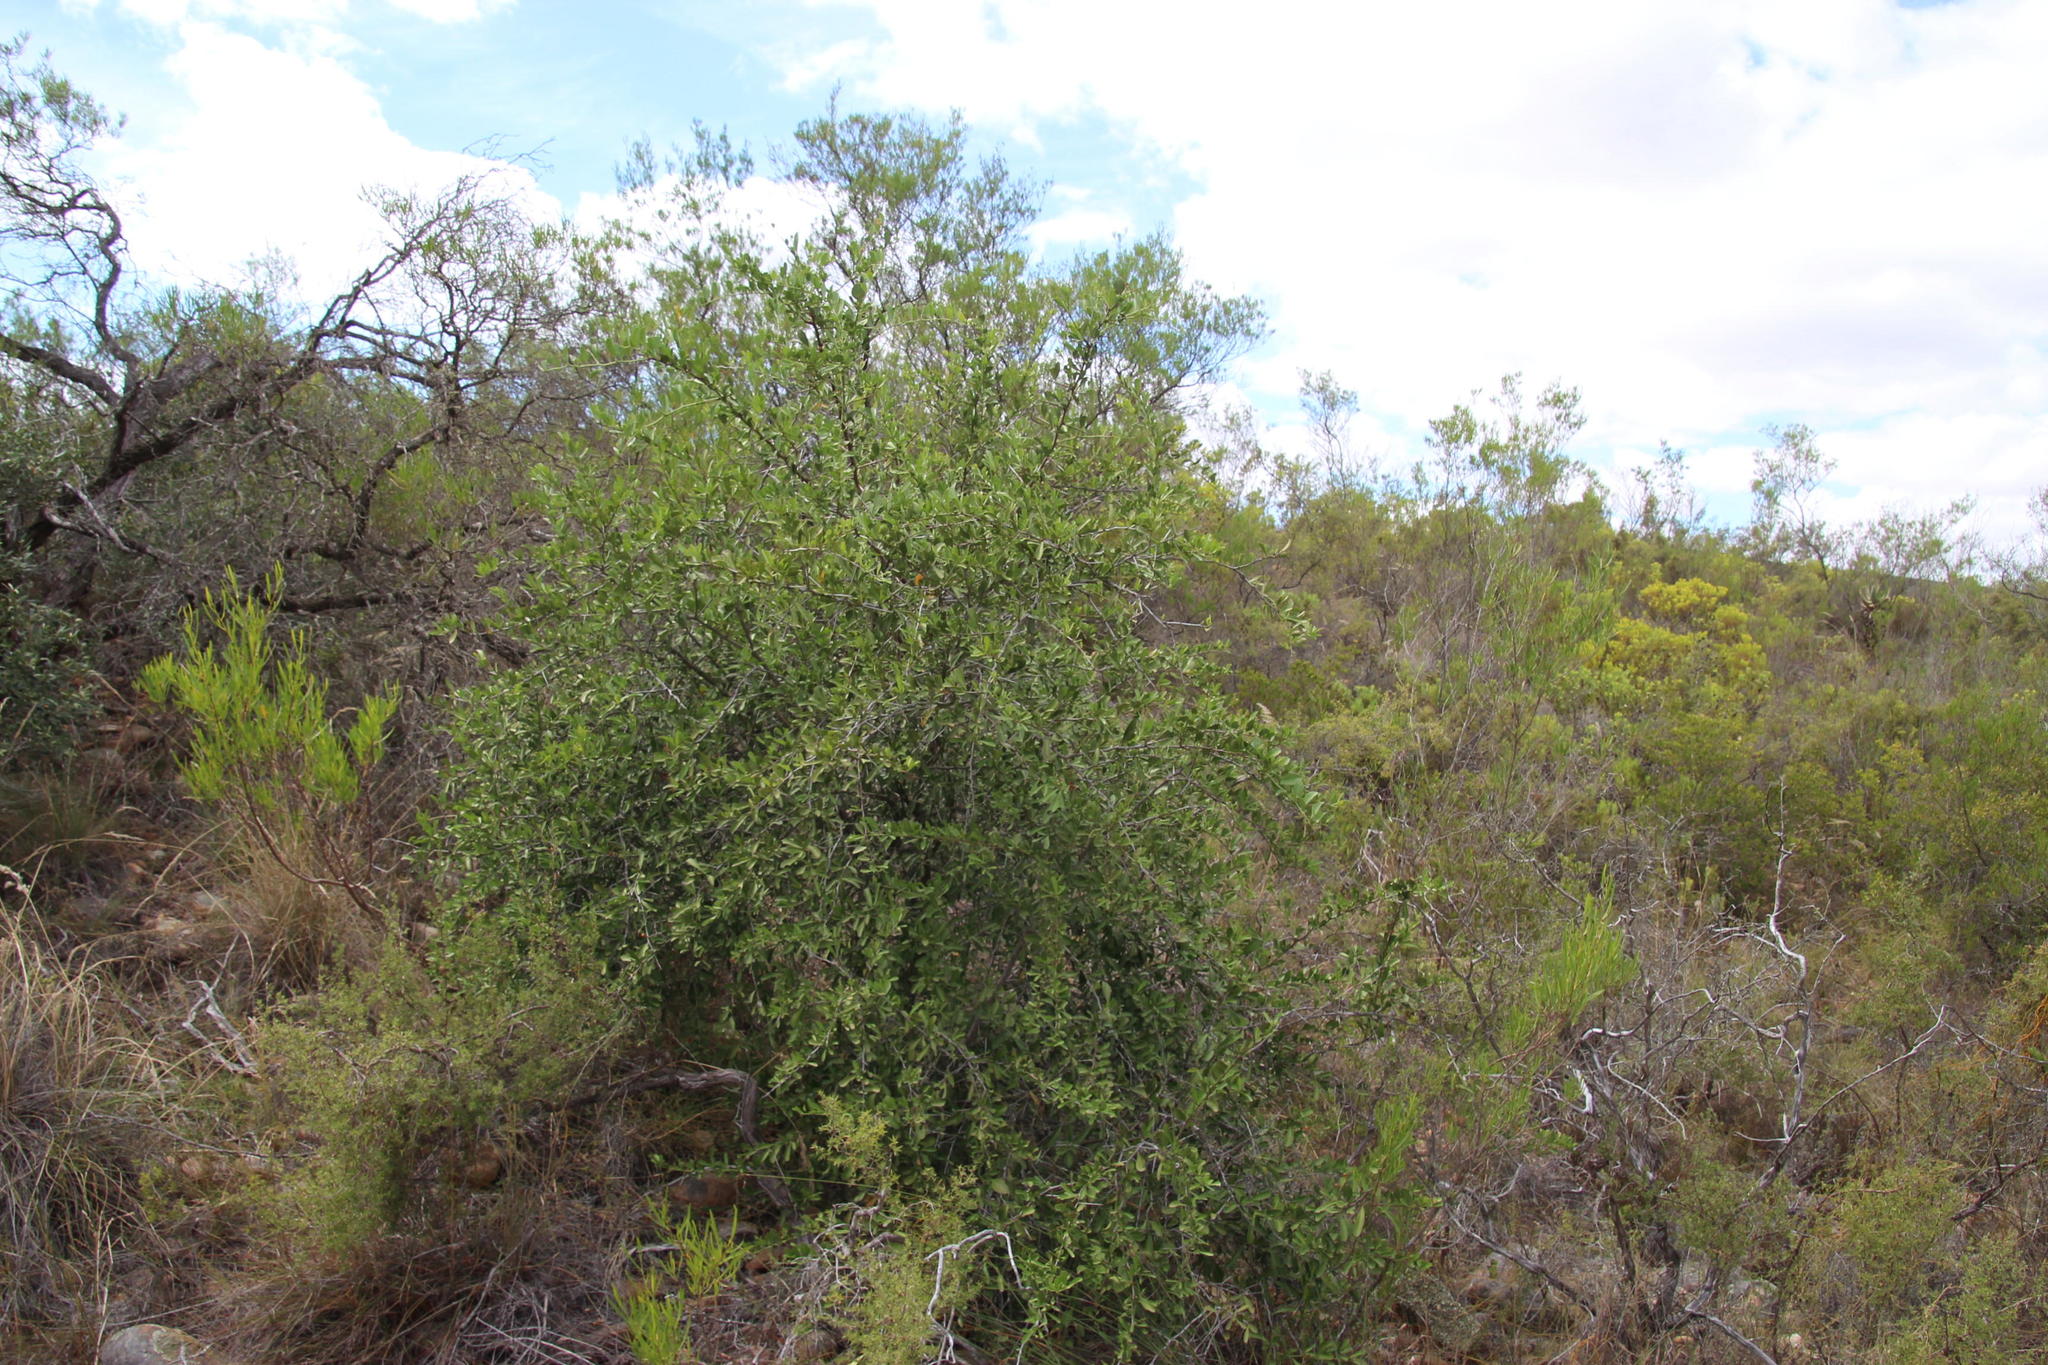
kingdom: Plantae
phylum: Tracheophyta
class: Magnoliopsida
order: Celastrales
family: Celastraceae
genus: Gymnosporia
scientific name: Gymnosporia buxifolia
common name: Common spike-thorn
